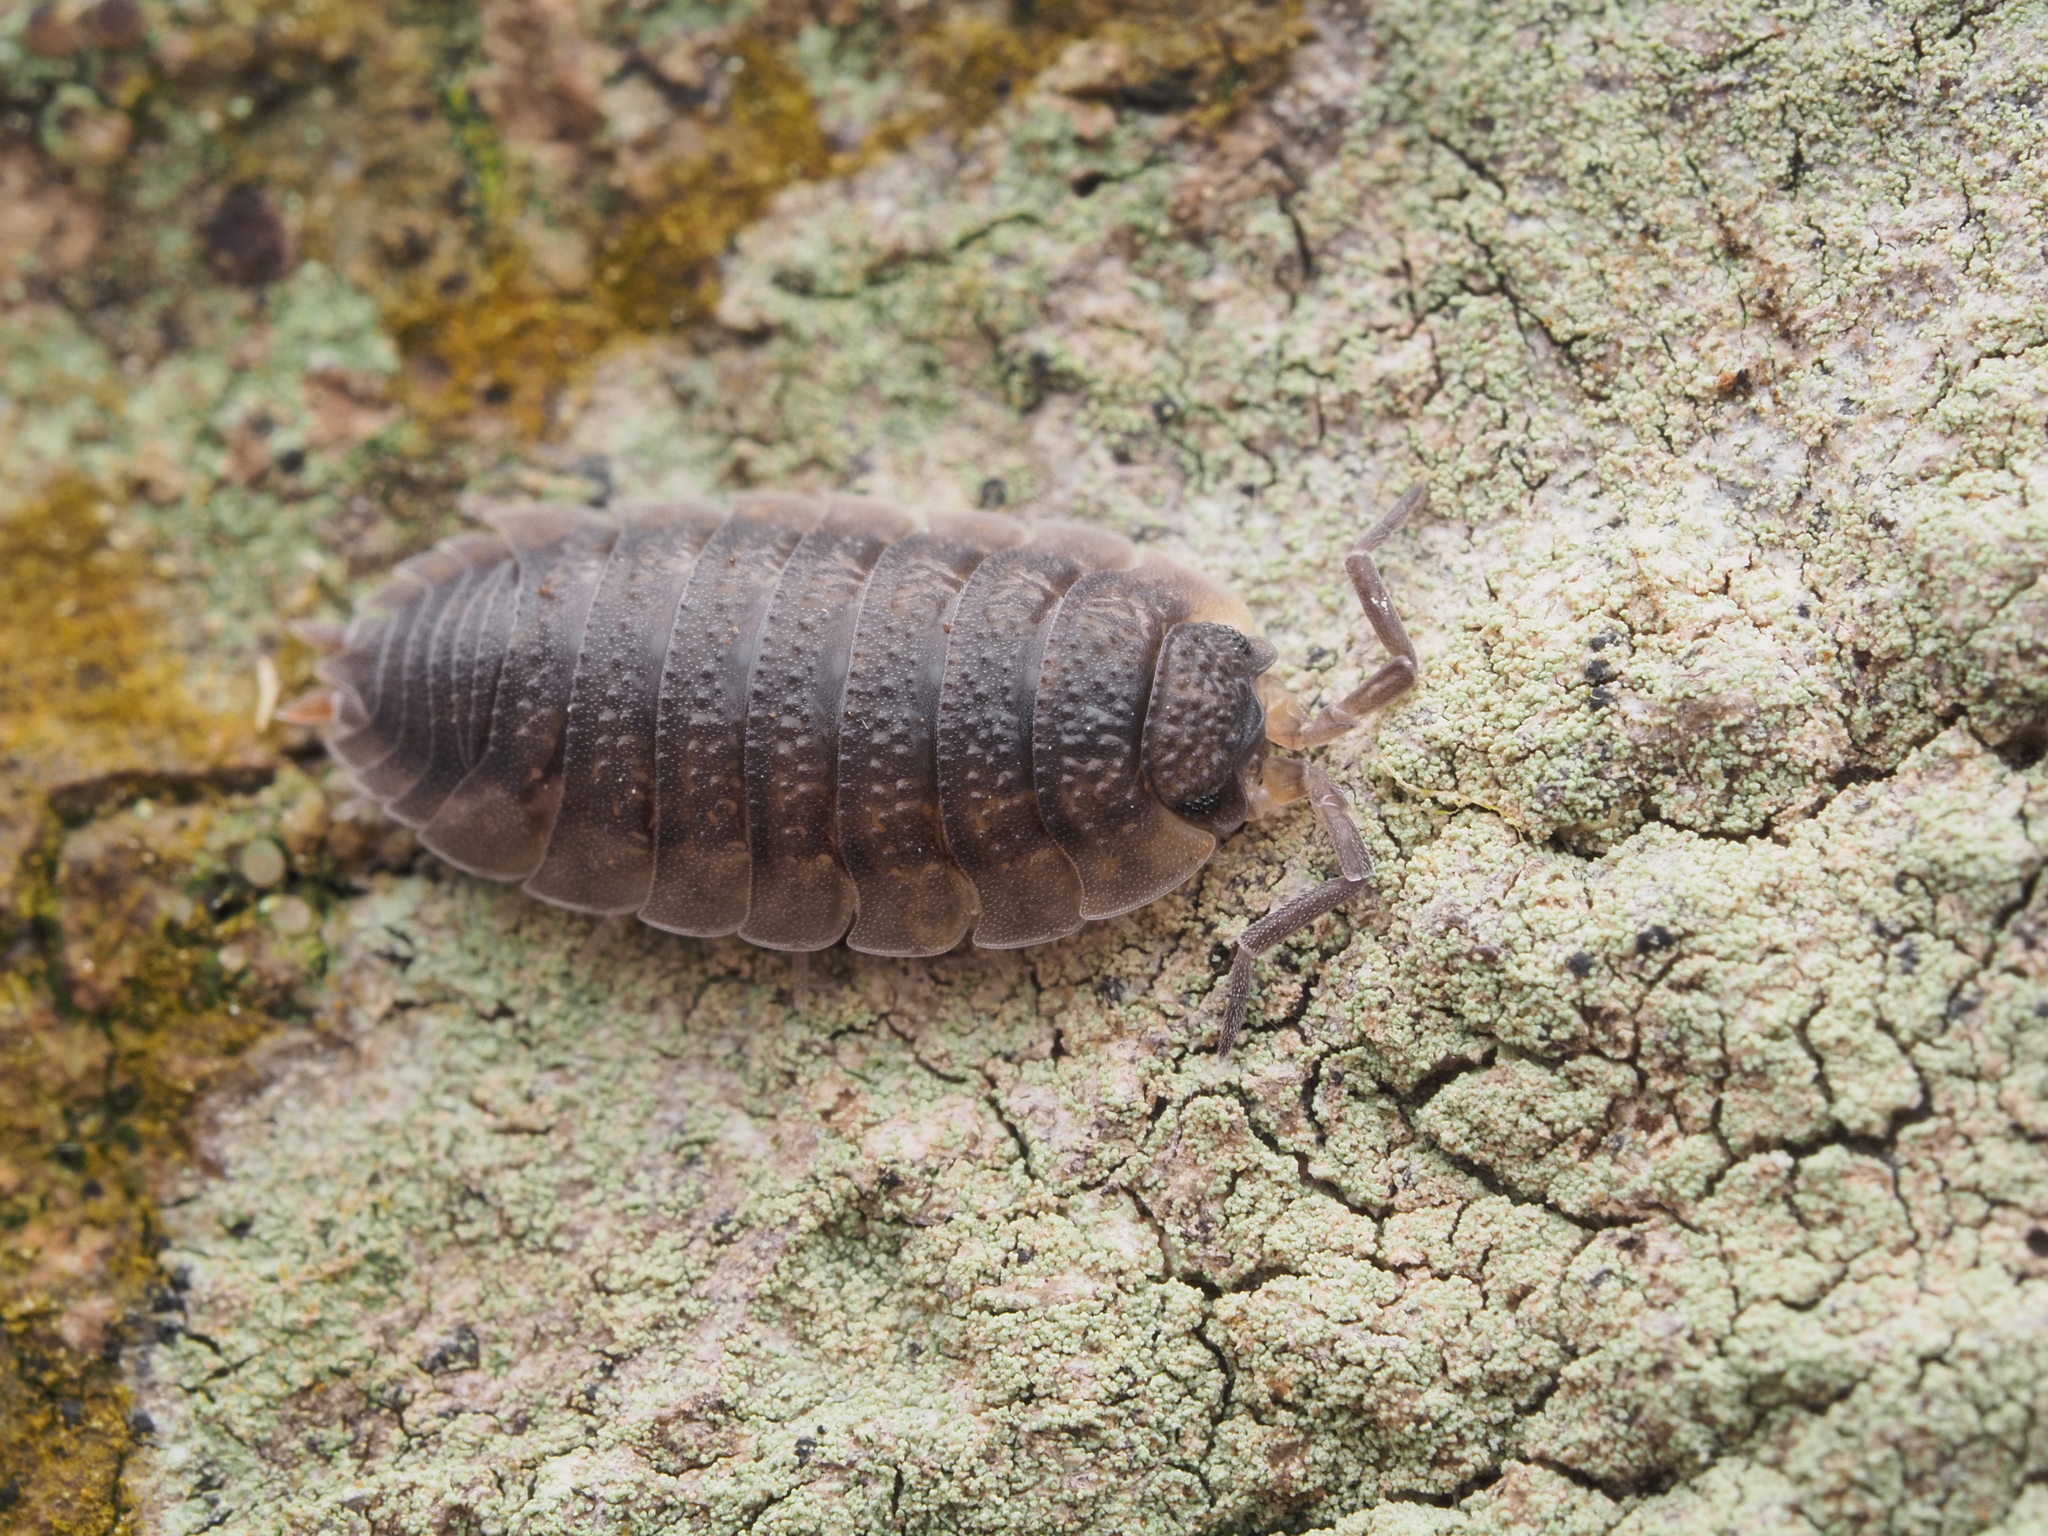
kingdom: Animalia
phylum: Arthropoda
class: Malacostraca
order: Isopoda
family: Porcellionidae
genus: Porcellio
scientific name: Porcellio scaber
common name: Common rough woodlouse
